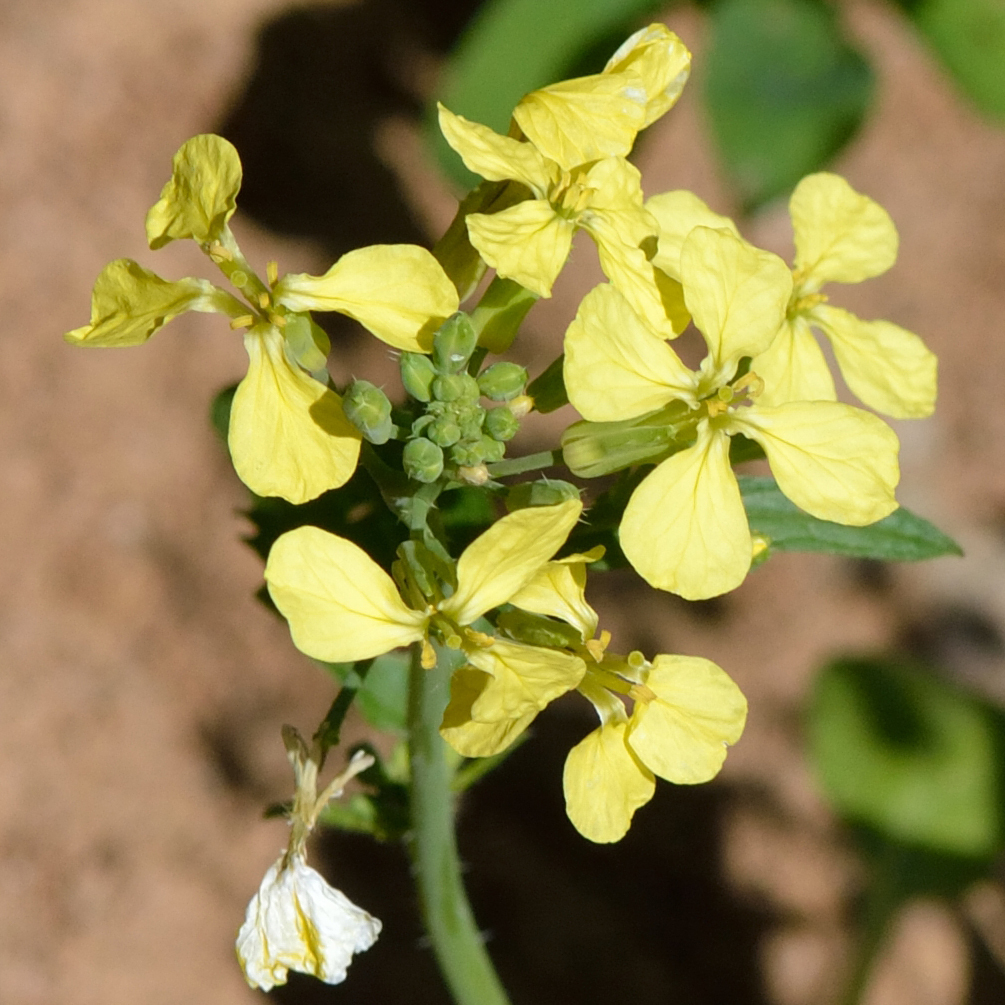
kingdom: Plantae
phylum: Tracheophyta
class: Magnoliopsida
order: Brassicales
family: Brassicaceae
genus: Raphanus
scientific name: Raphanus raphanistrum
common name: Wild radish
